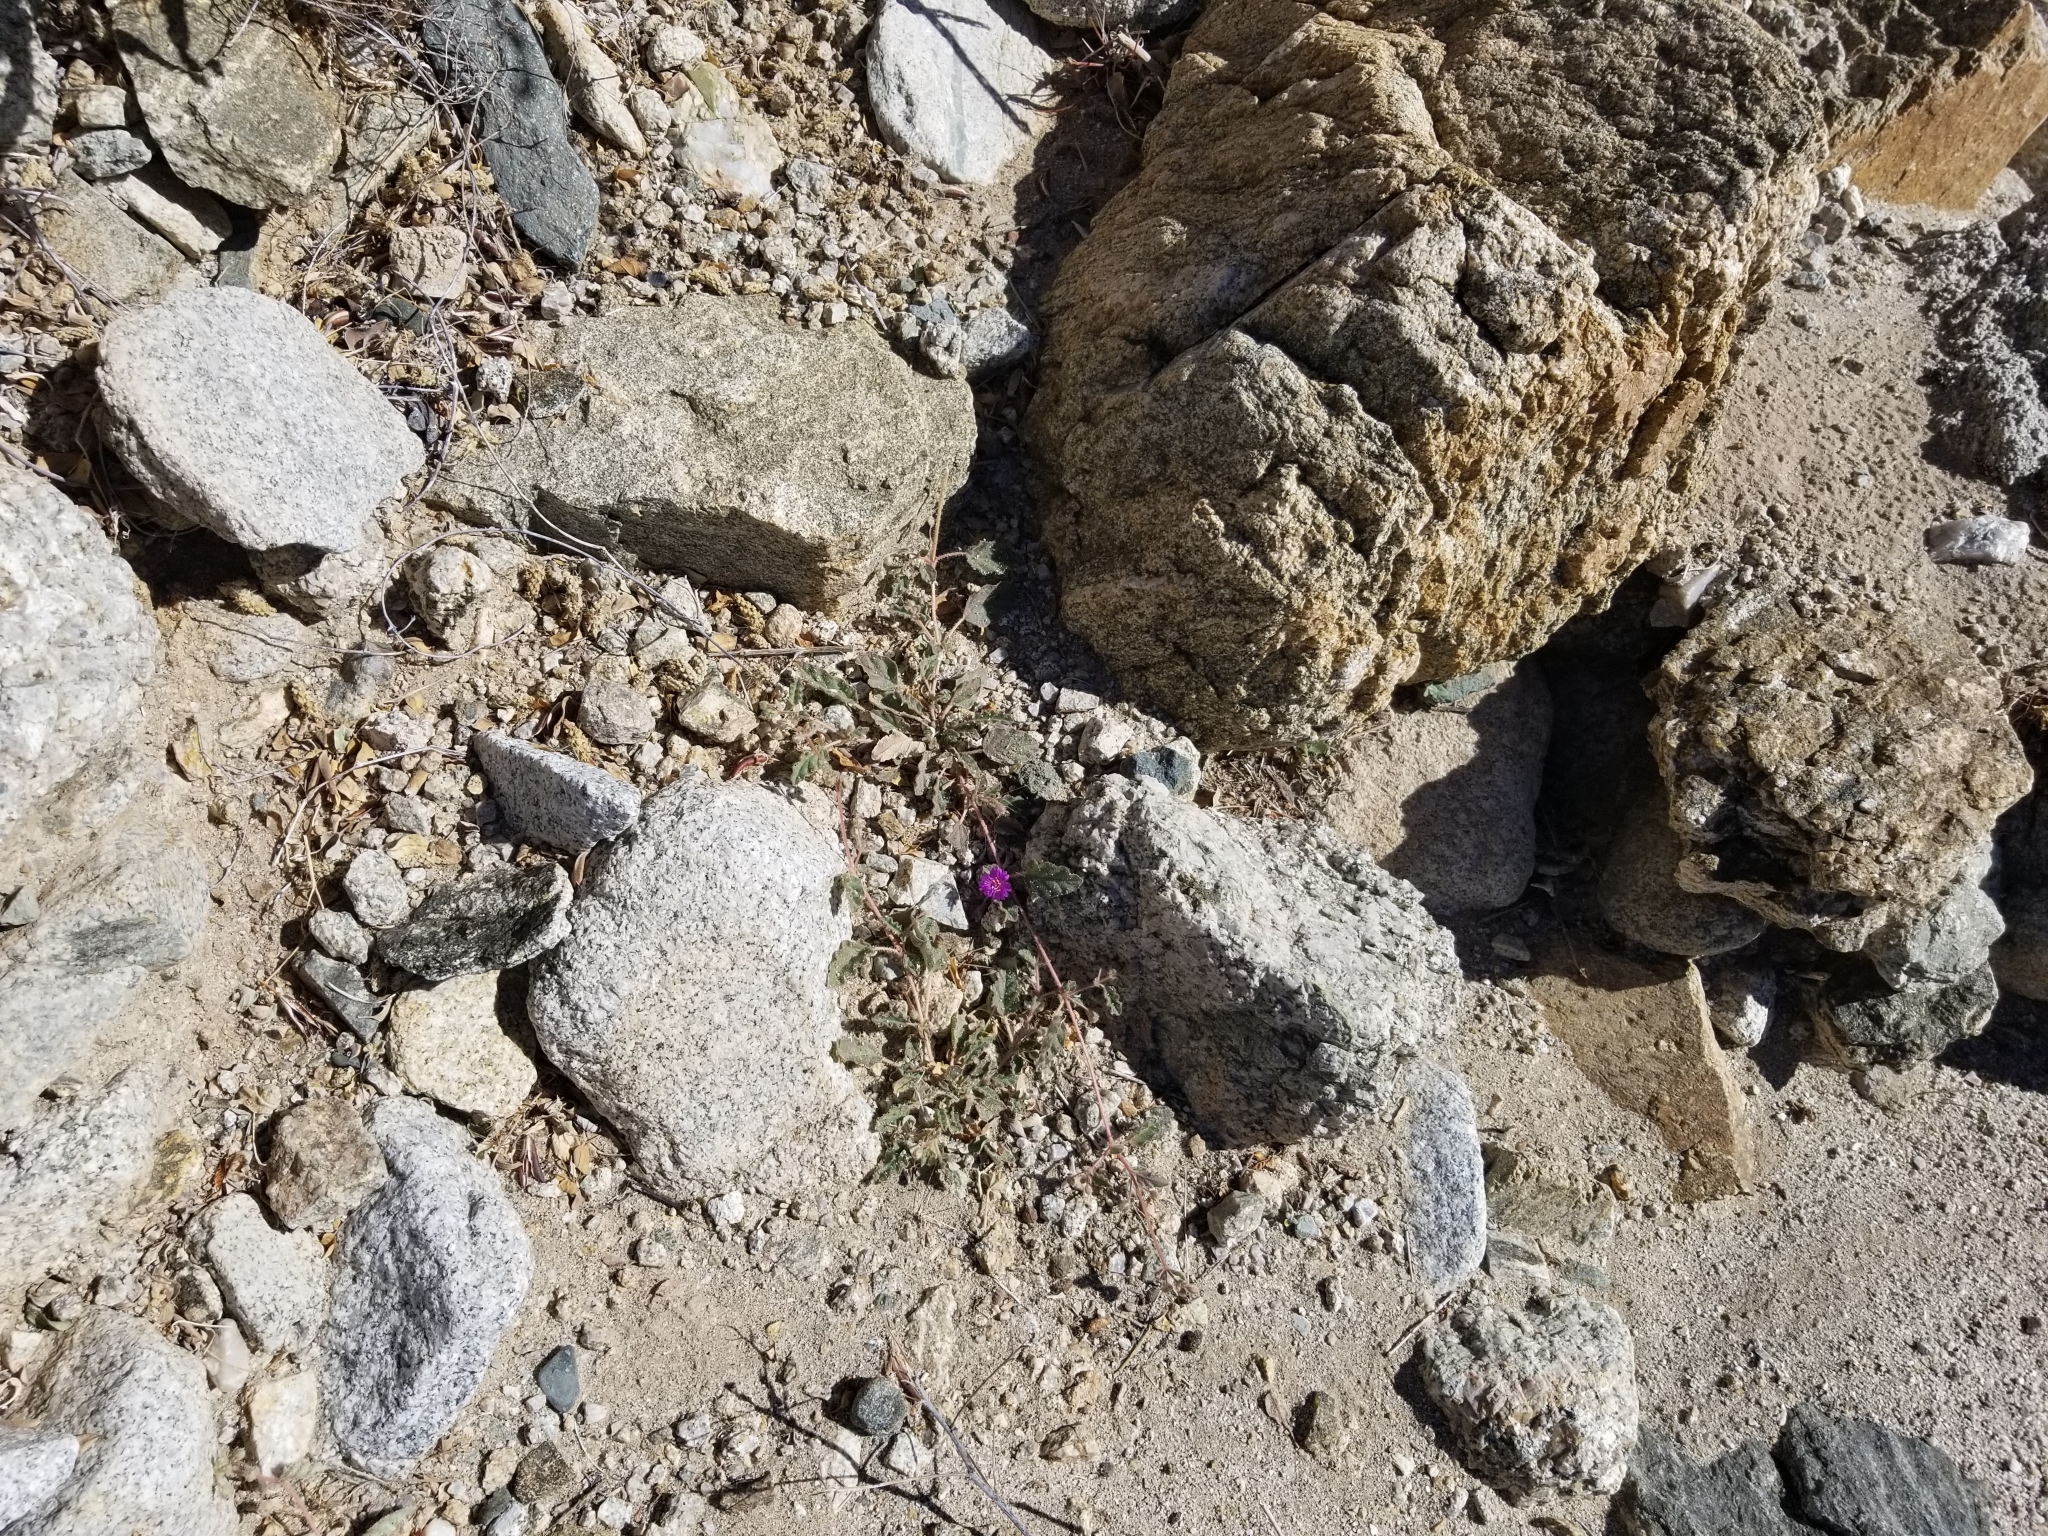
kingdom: Plantae
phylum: Tracheophyta
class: Magnoliopsida
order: Caryophyllales
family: Nyctaginaceae
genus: Allionia
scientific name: Allionia incarnata
